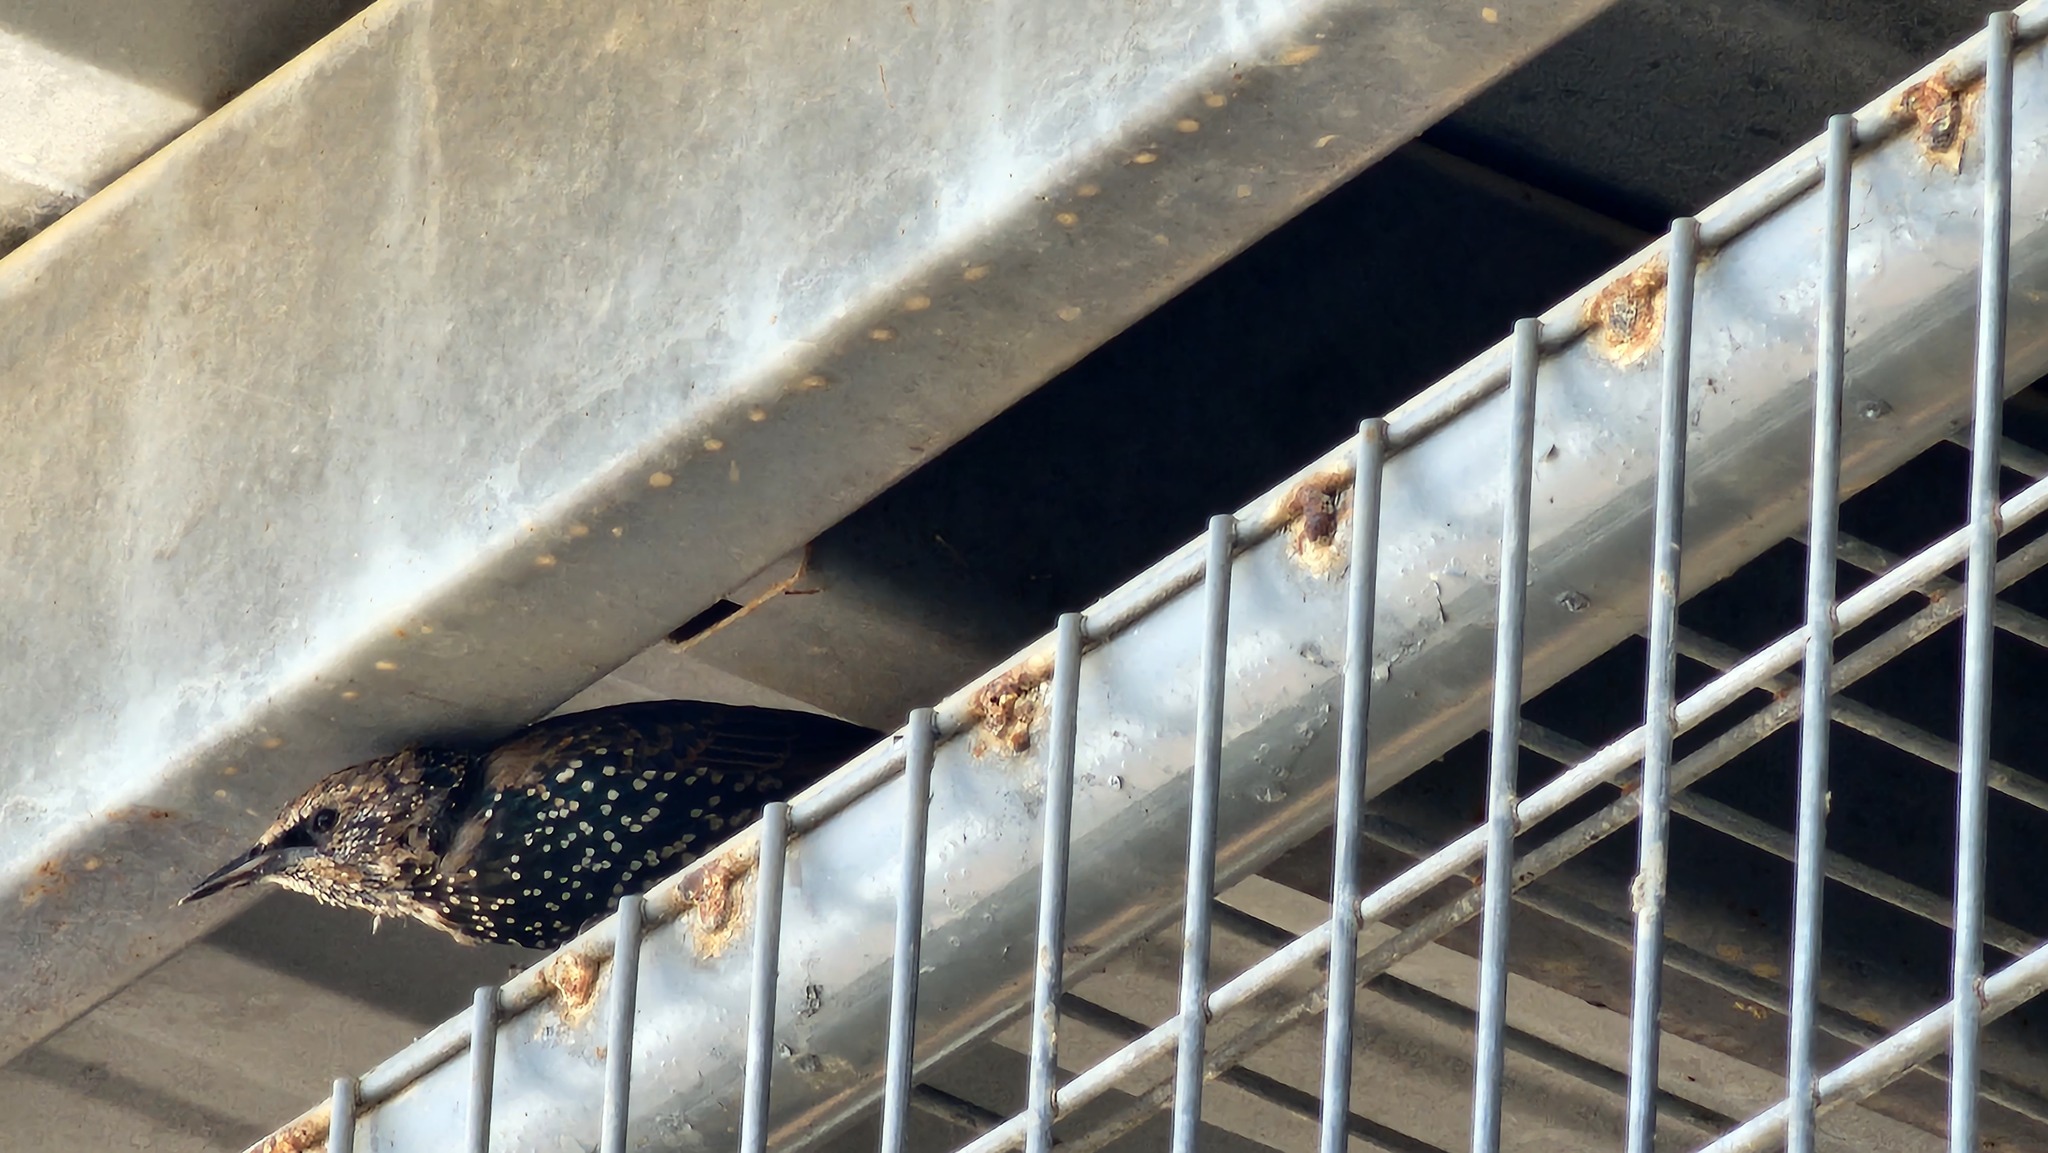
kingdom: Animalia
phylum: Chordata
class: Aves
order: Passeriformes
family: Sturnidae
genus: Sturnus
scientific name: Sturnus vulgaris
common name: Common starling
